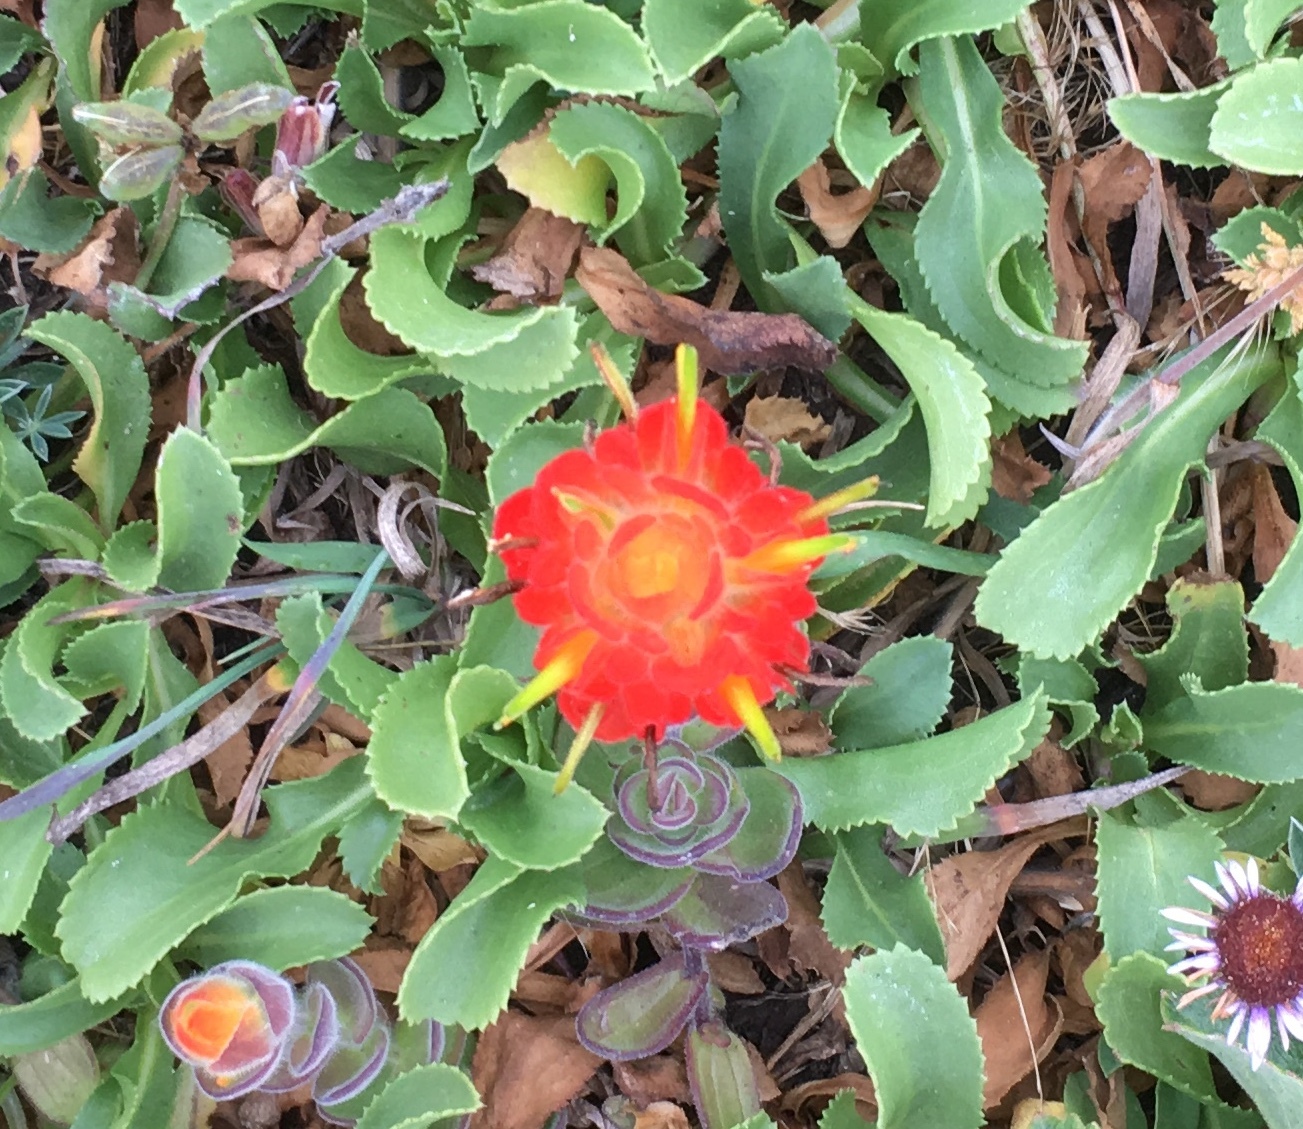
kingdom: Plantae
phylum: Tracheophyta
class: Magnoliopsida
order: Lamiales
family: Orobanchaceae
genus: Castilleja
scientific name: Castilleja mendocinensis
